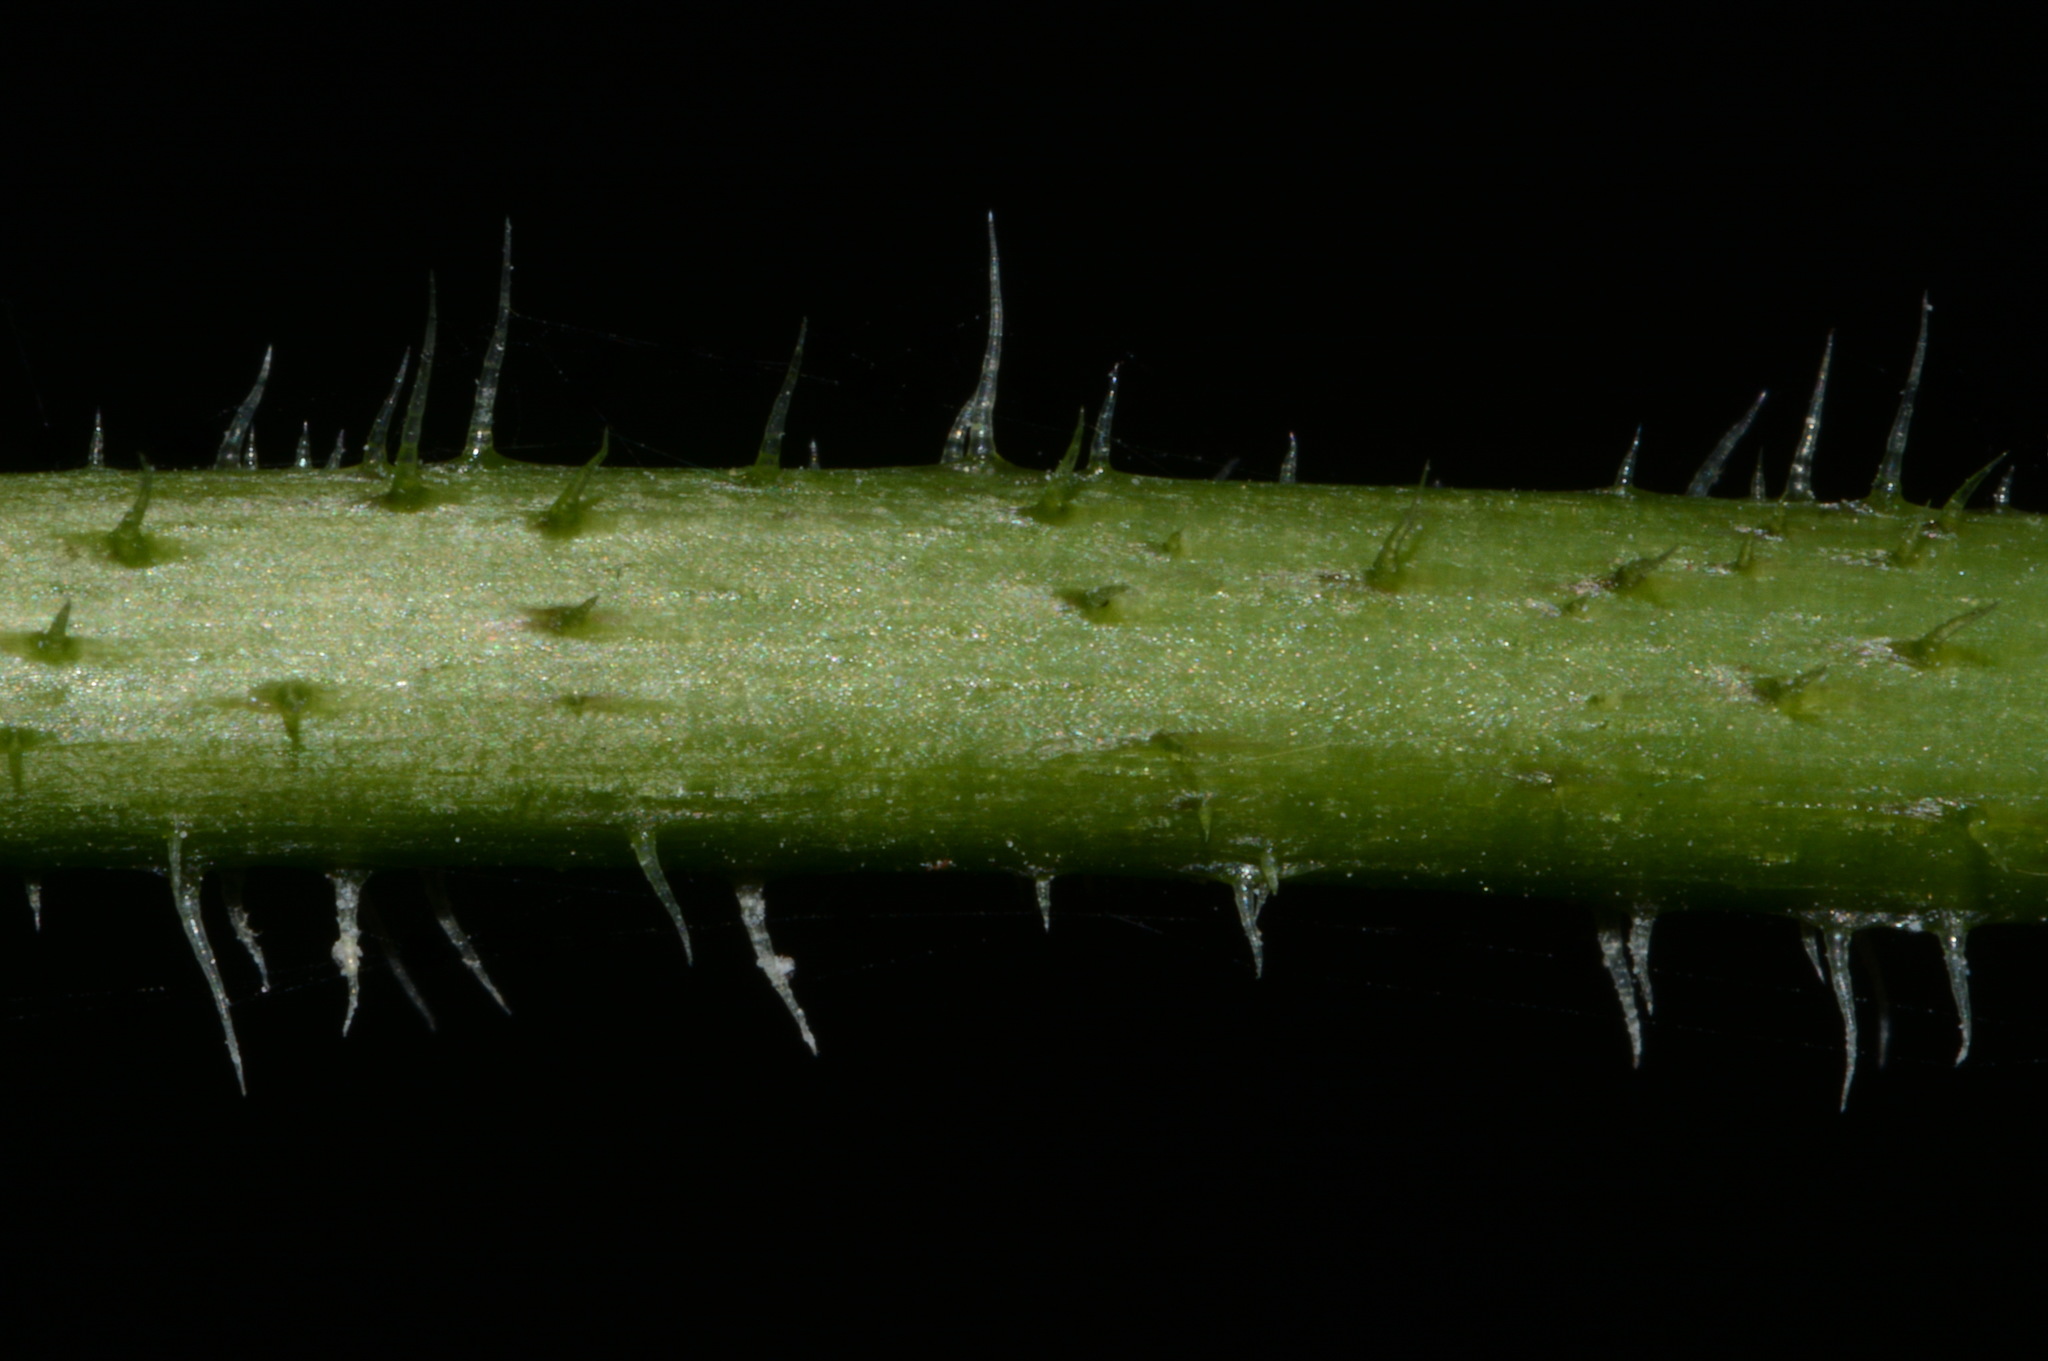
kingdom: Plantae
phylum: Tracheophyta
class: Magnoliopsida
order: Asterales
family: Asteraceae
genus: Silphium
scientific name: Silphium wasiotense
